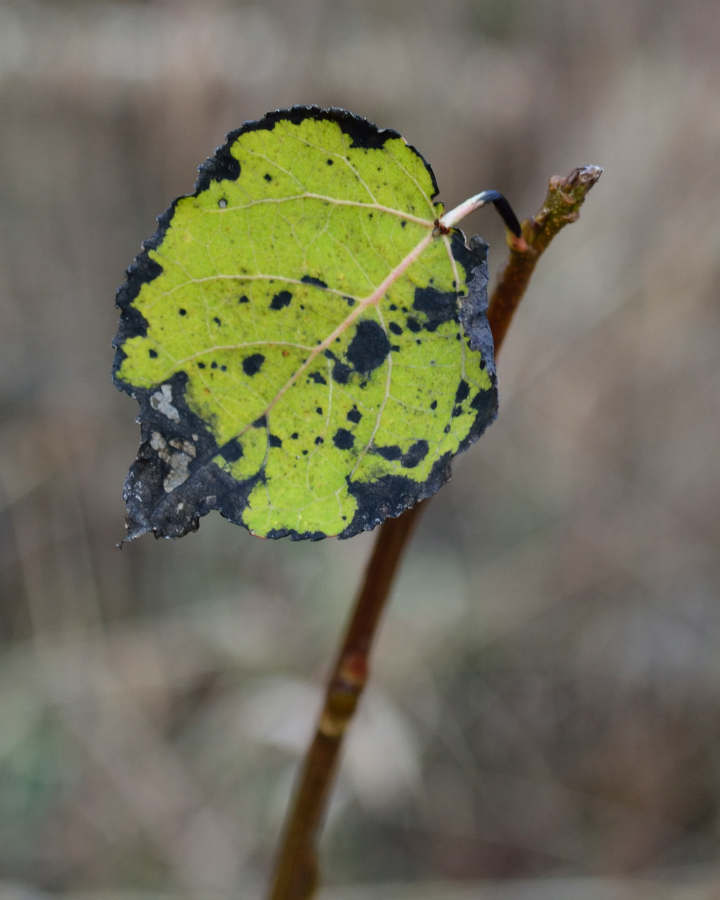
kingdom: Plantae
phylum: Tracheophyta
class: Magnoliopsida
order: Malpighiales
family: Salicaceae
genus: Populus
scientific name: Populus tremula
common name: European aspen
